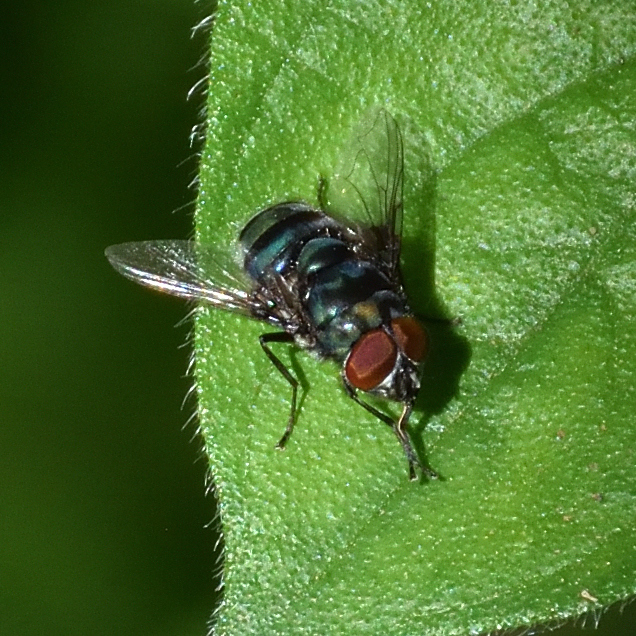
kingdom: Animalia
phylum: Arthropoda
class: Insecta
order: Diptera
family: Calliphoridae
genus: Chrysomya
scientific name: Chrysomya chloropyga
